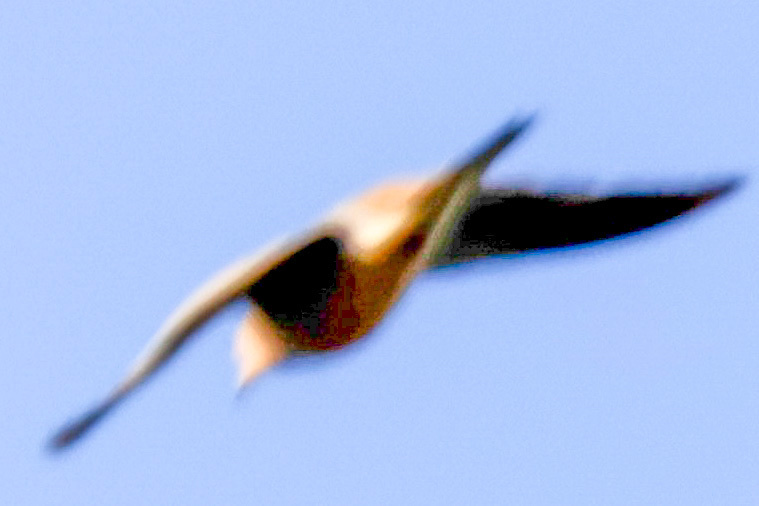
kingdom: Animalia
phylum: Chordata
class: Aves
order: Columbiformes
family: Columbidae
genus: Zenaida
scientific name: Zenaida macroura
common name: Mourning dove
